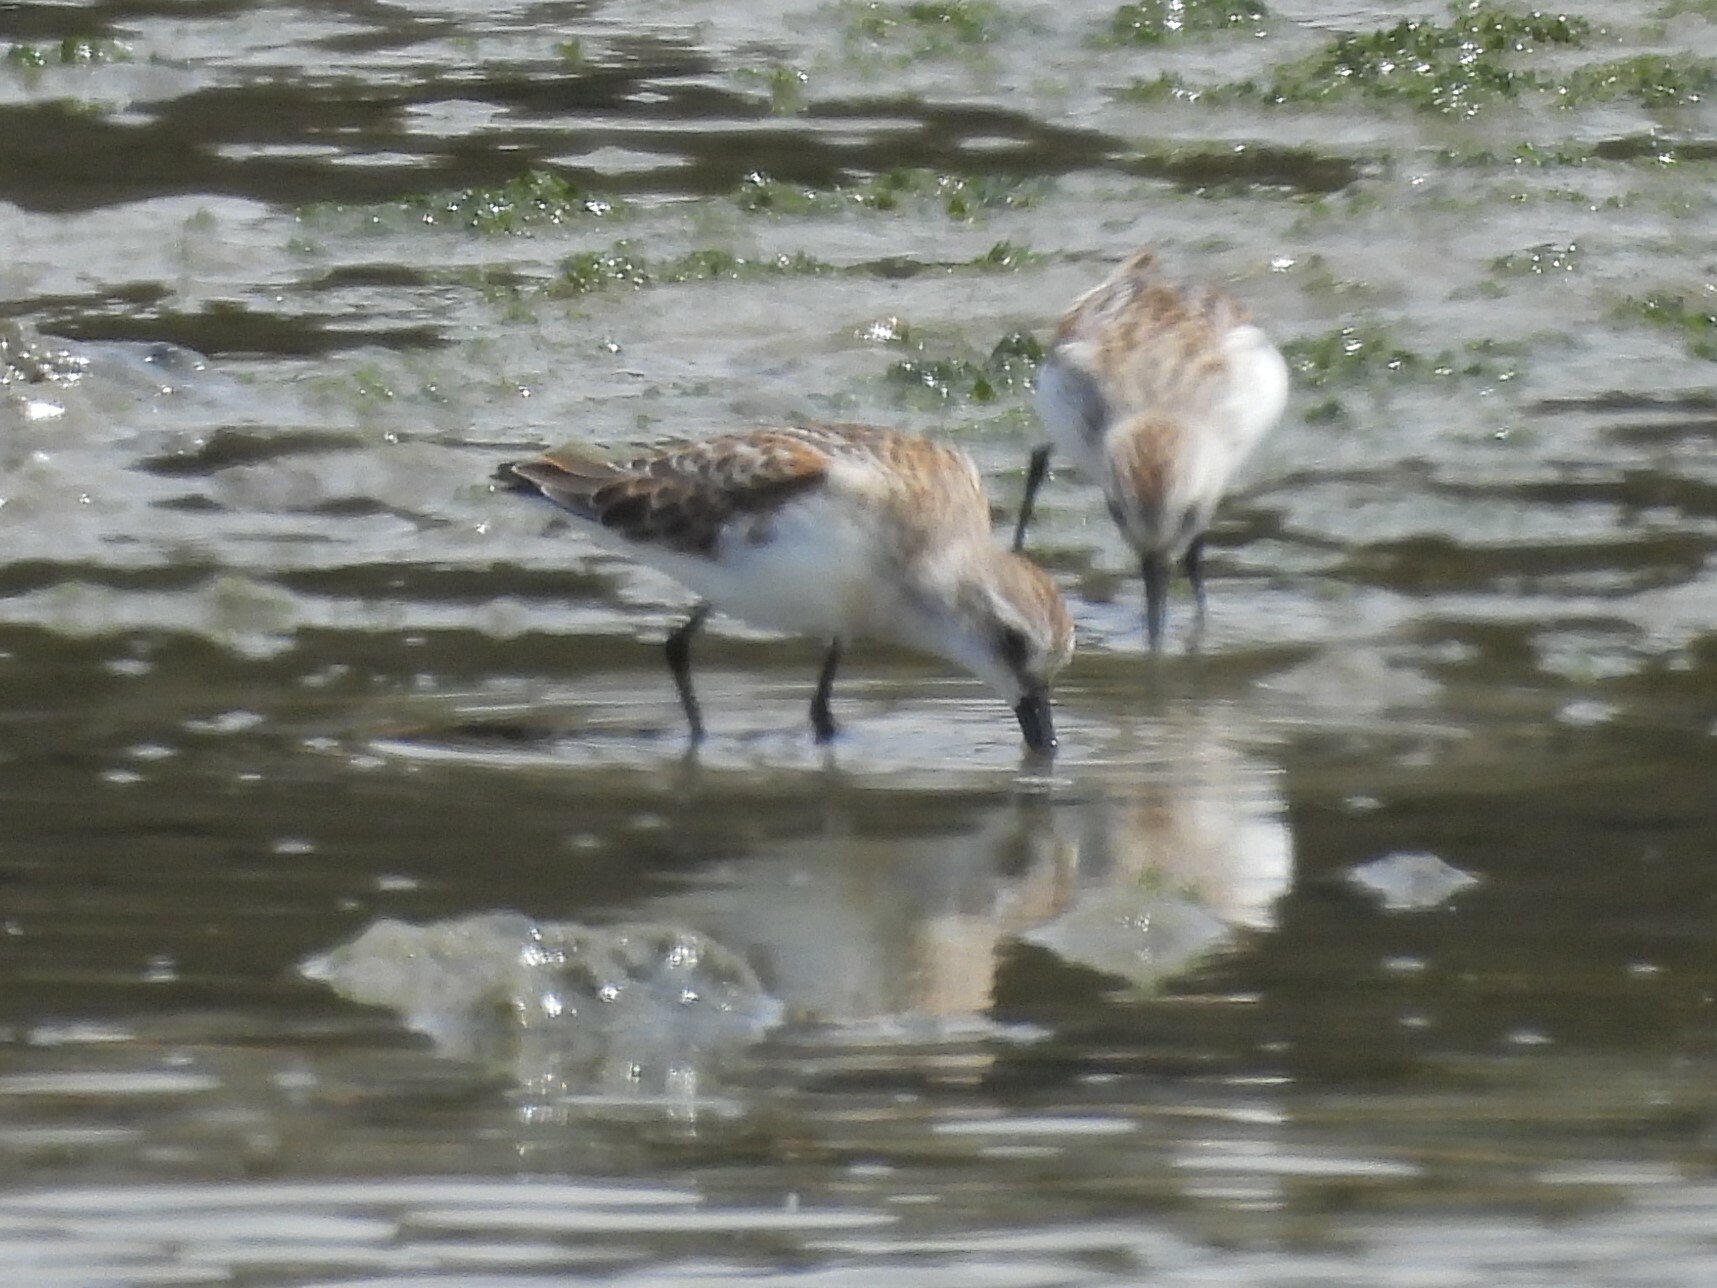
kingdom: Animalia
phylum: Chordata
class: Aves
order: Charadriiformes
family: Scolopacidae
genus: Calidris
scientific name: Calidris mauri
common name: Western sandpiper
